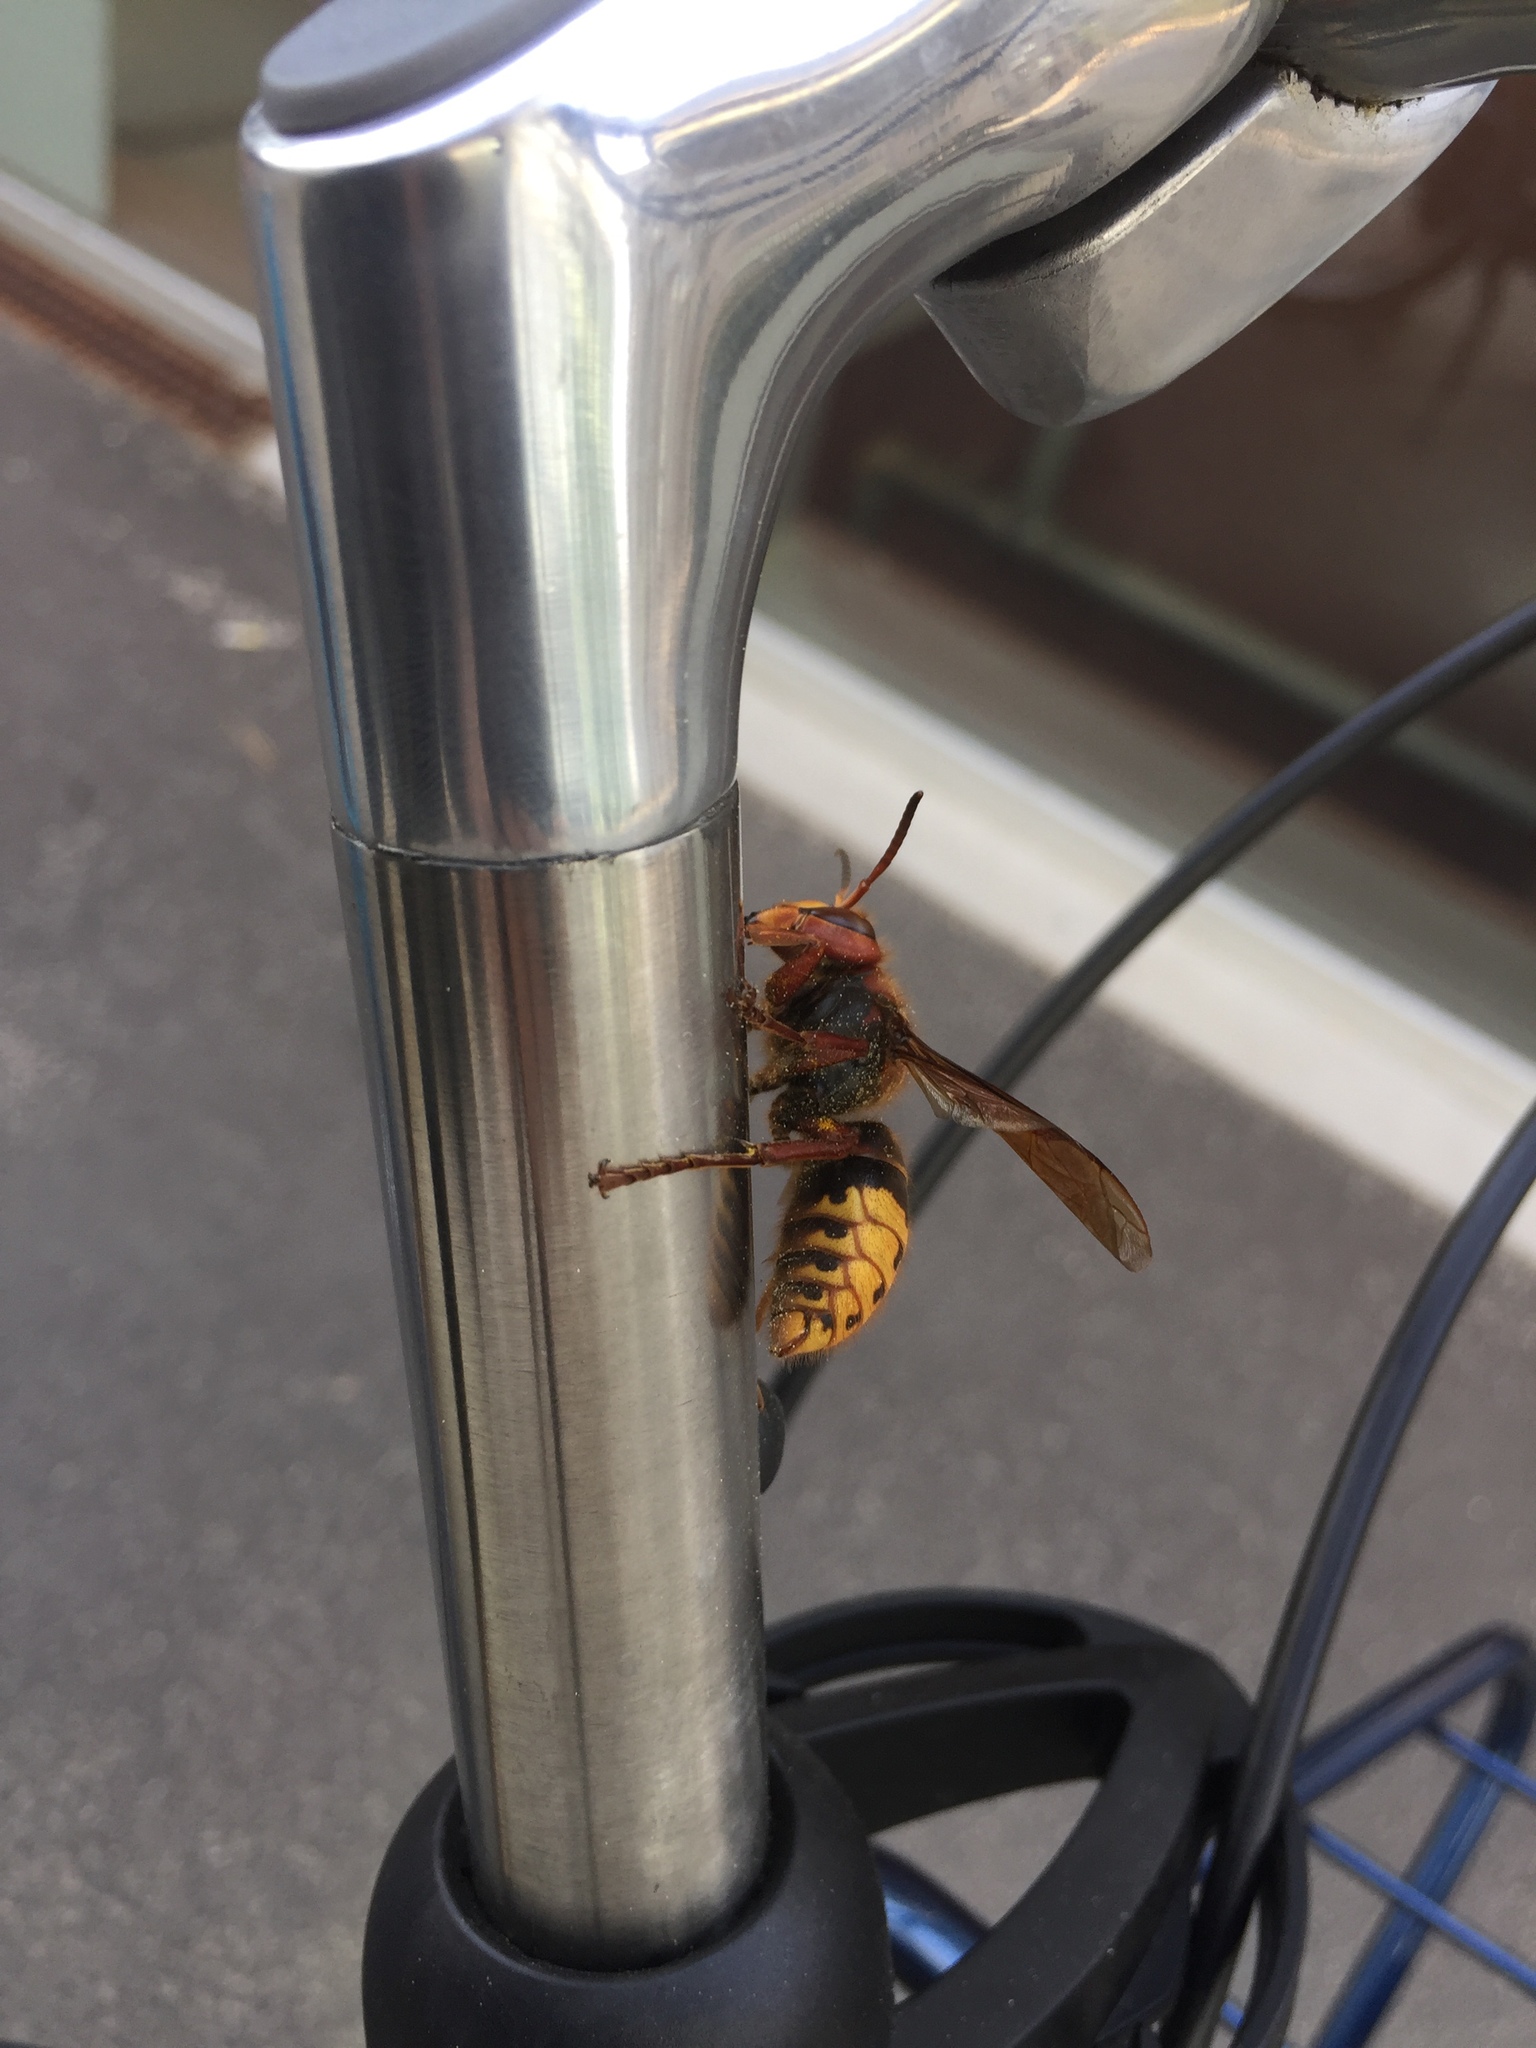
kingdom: Animalia
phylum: Arthropoda
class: Insecta
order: Hymenoptera
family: Vespidae
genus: Vespa
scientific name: Vespa crabro
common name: Hornet
